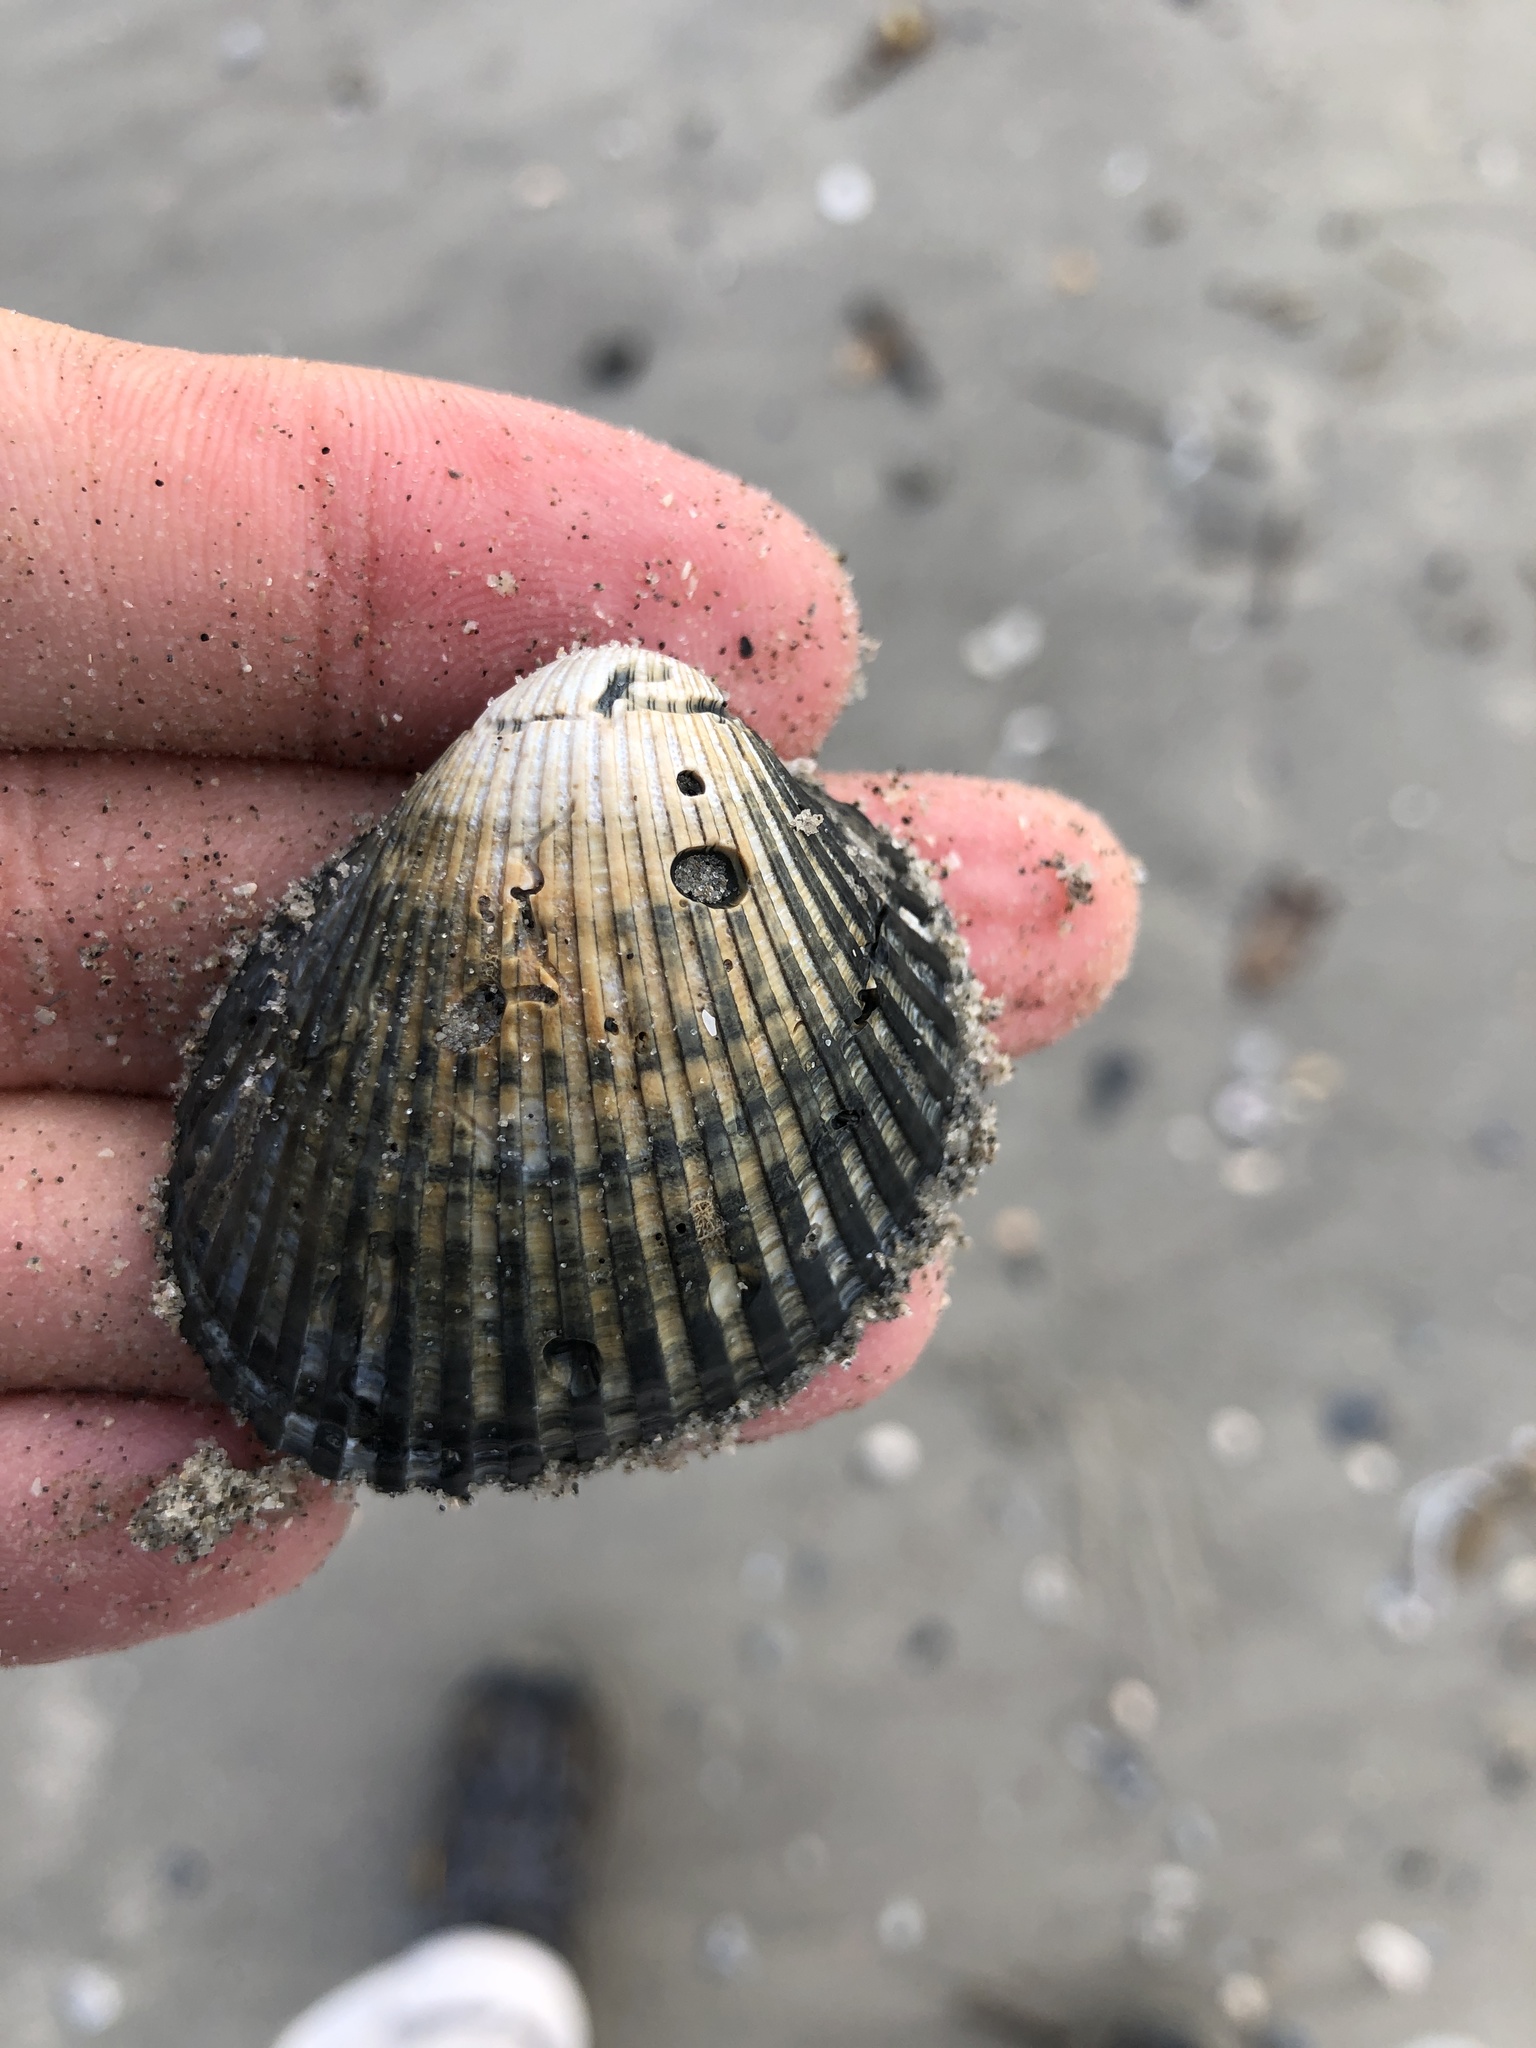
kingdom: Animalia
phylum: Mollusca
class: Bivalvia
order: Arcida
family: Arcidae
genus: Lunarca
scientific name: Lunarca ovalis
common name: Blood ark
